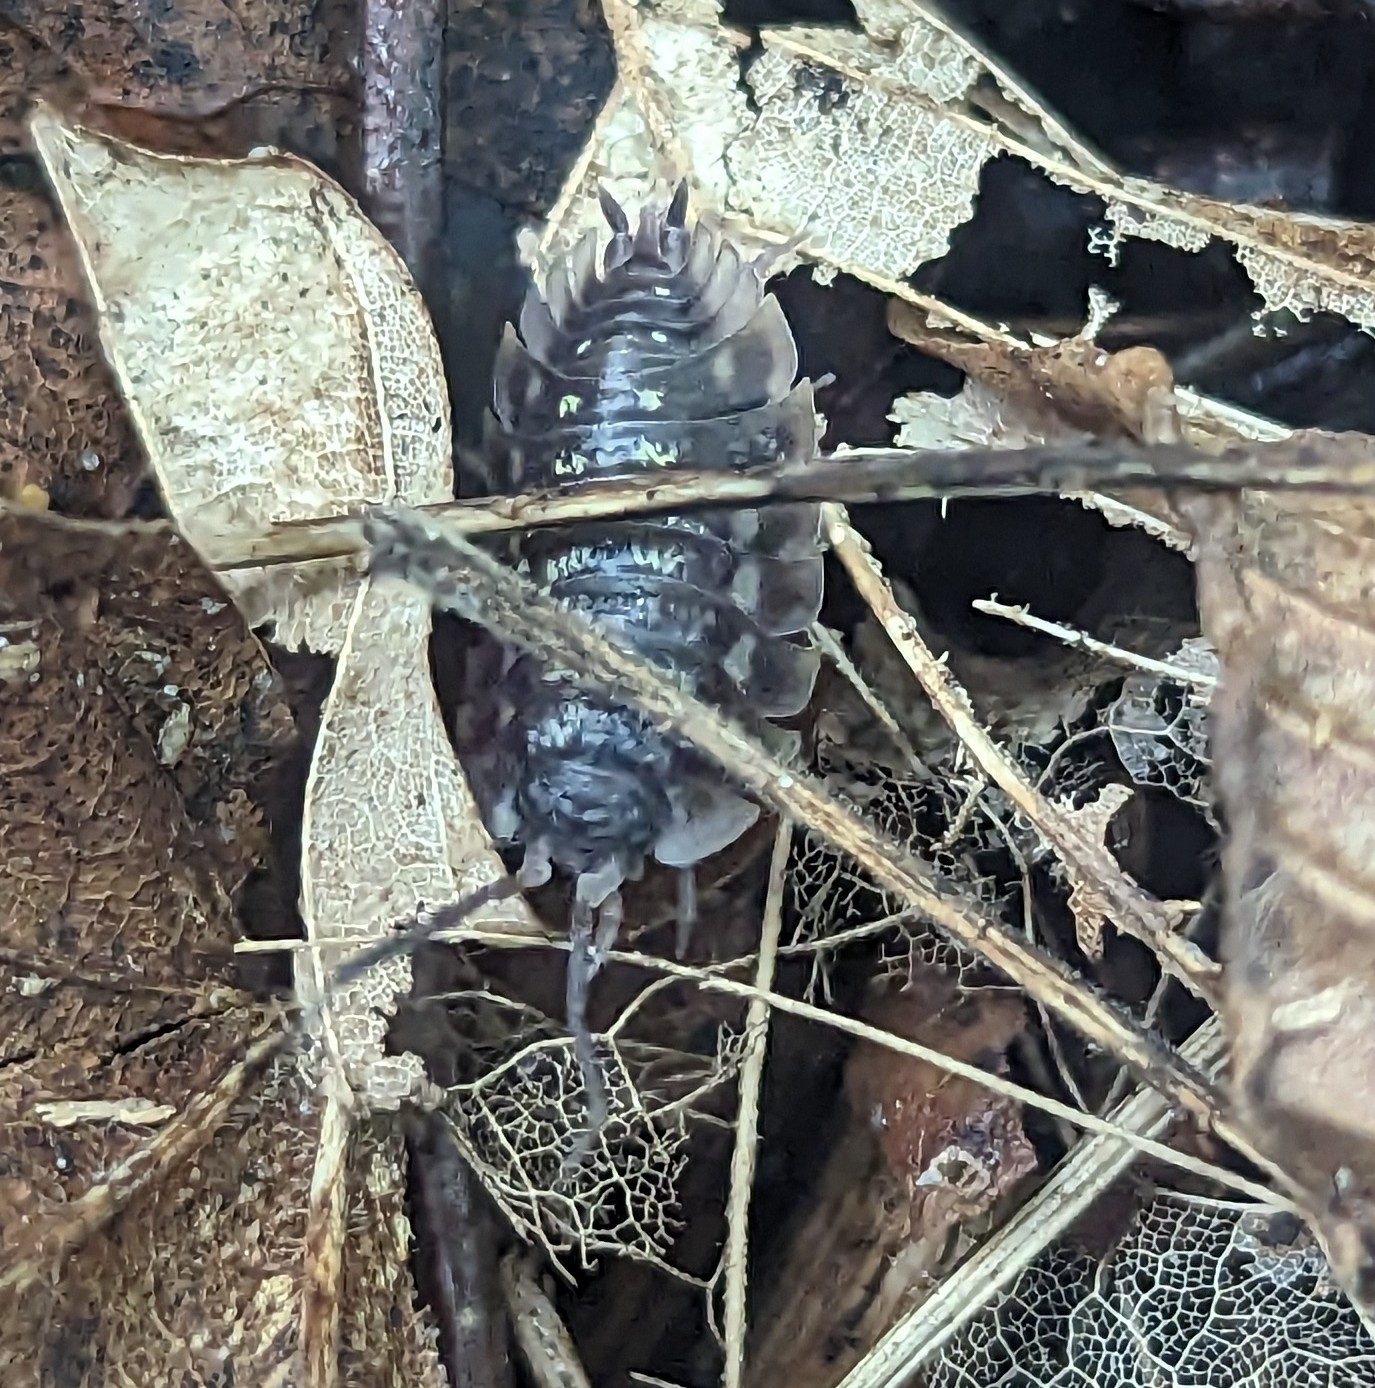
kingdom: Animalia
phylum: Arthropoda
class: Malacostraca
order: Isopoda
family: Oniscidae
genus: Oniscus
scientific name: Oniscus asellus
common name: Common shiny woodlouse
